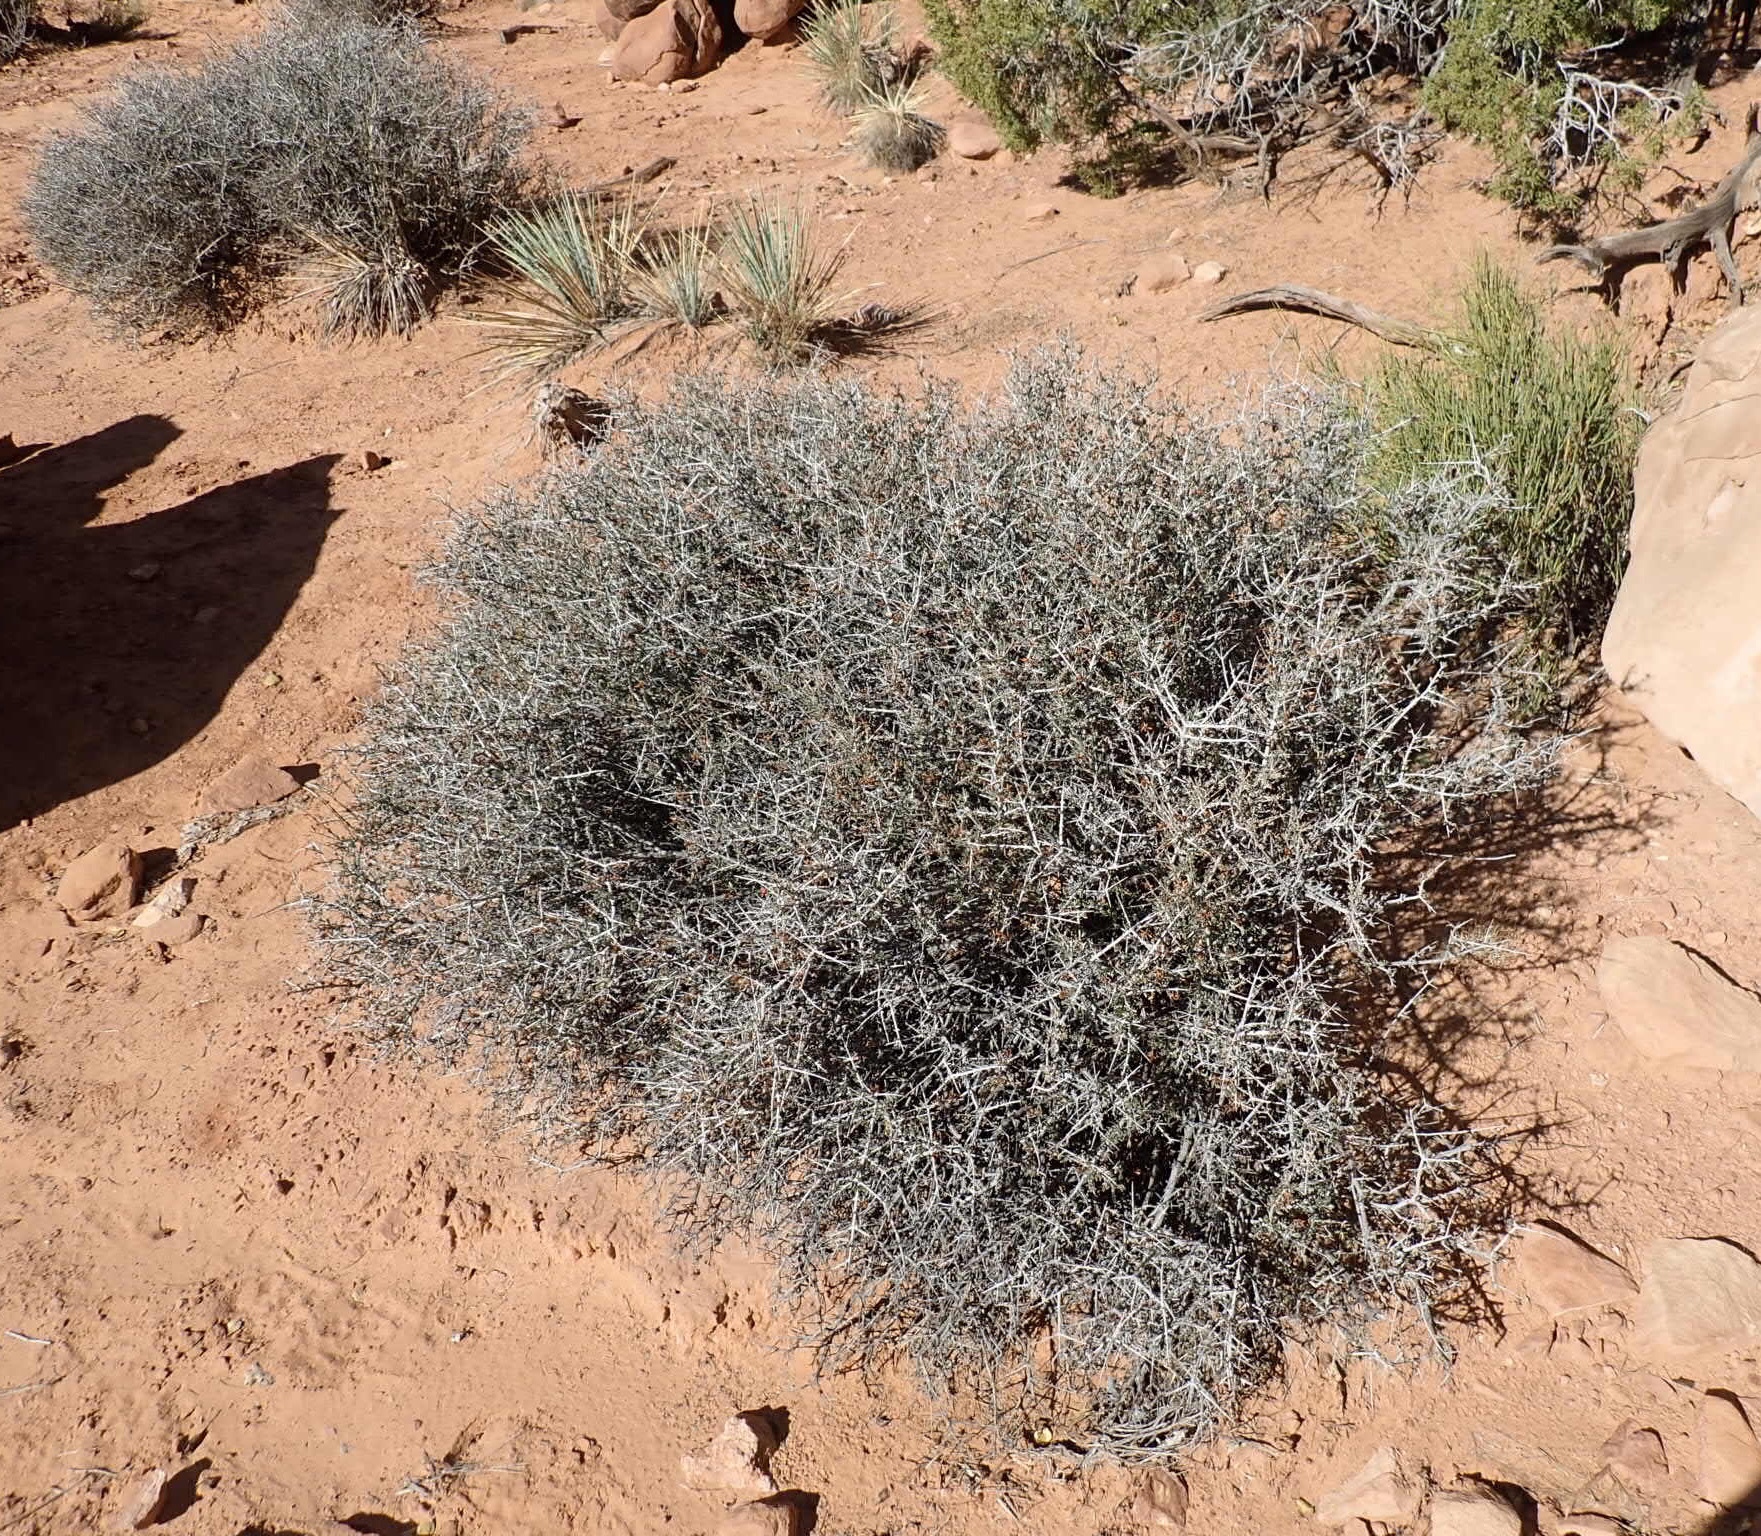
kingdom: Plantae
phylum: Tracheophyta
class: Magnoliopsida
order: Rosales
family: Rosaceae
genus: Coleogyne
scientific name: Coleogyne ramosissima
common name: Blackbrush
